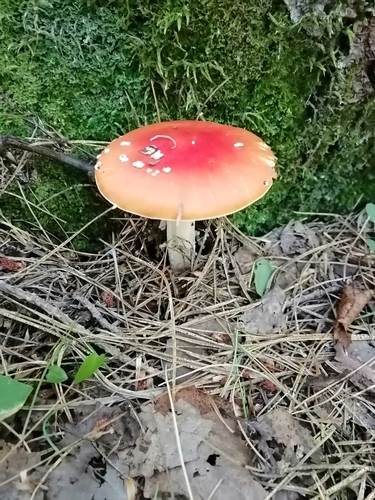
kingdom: Fungi
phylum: Basidiomycota
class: Agaricomycetes
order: Agaricales
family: Amanitaceae
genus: Amanita
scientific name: Amanita muscaria
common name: Fly agaric
